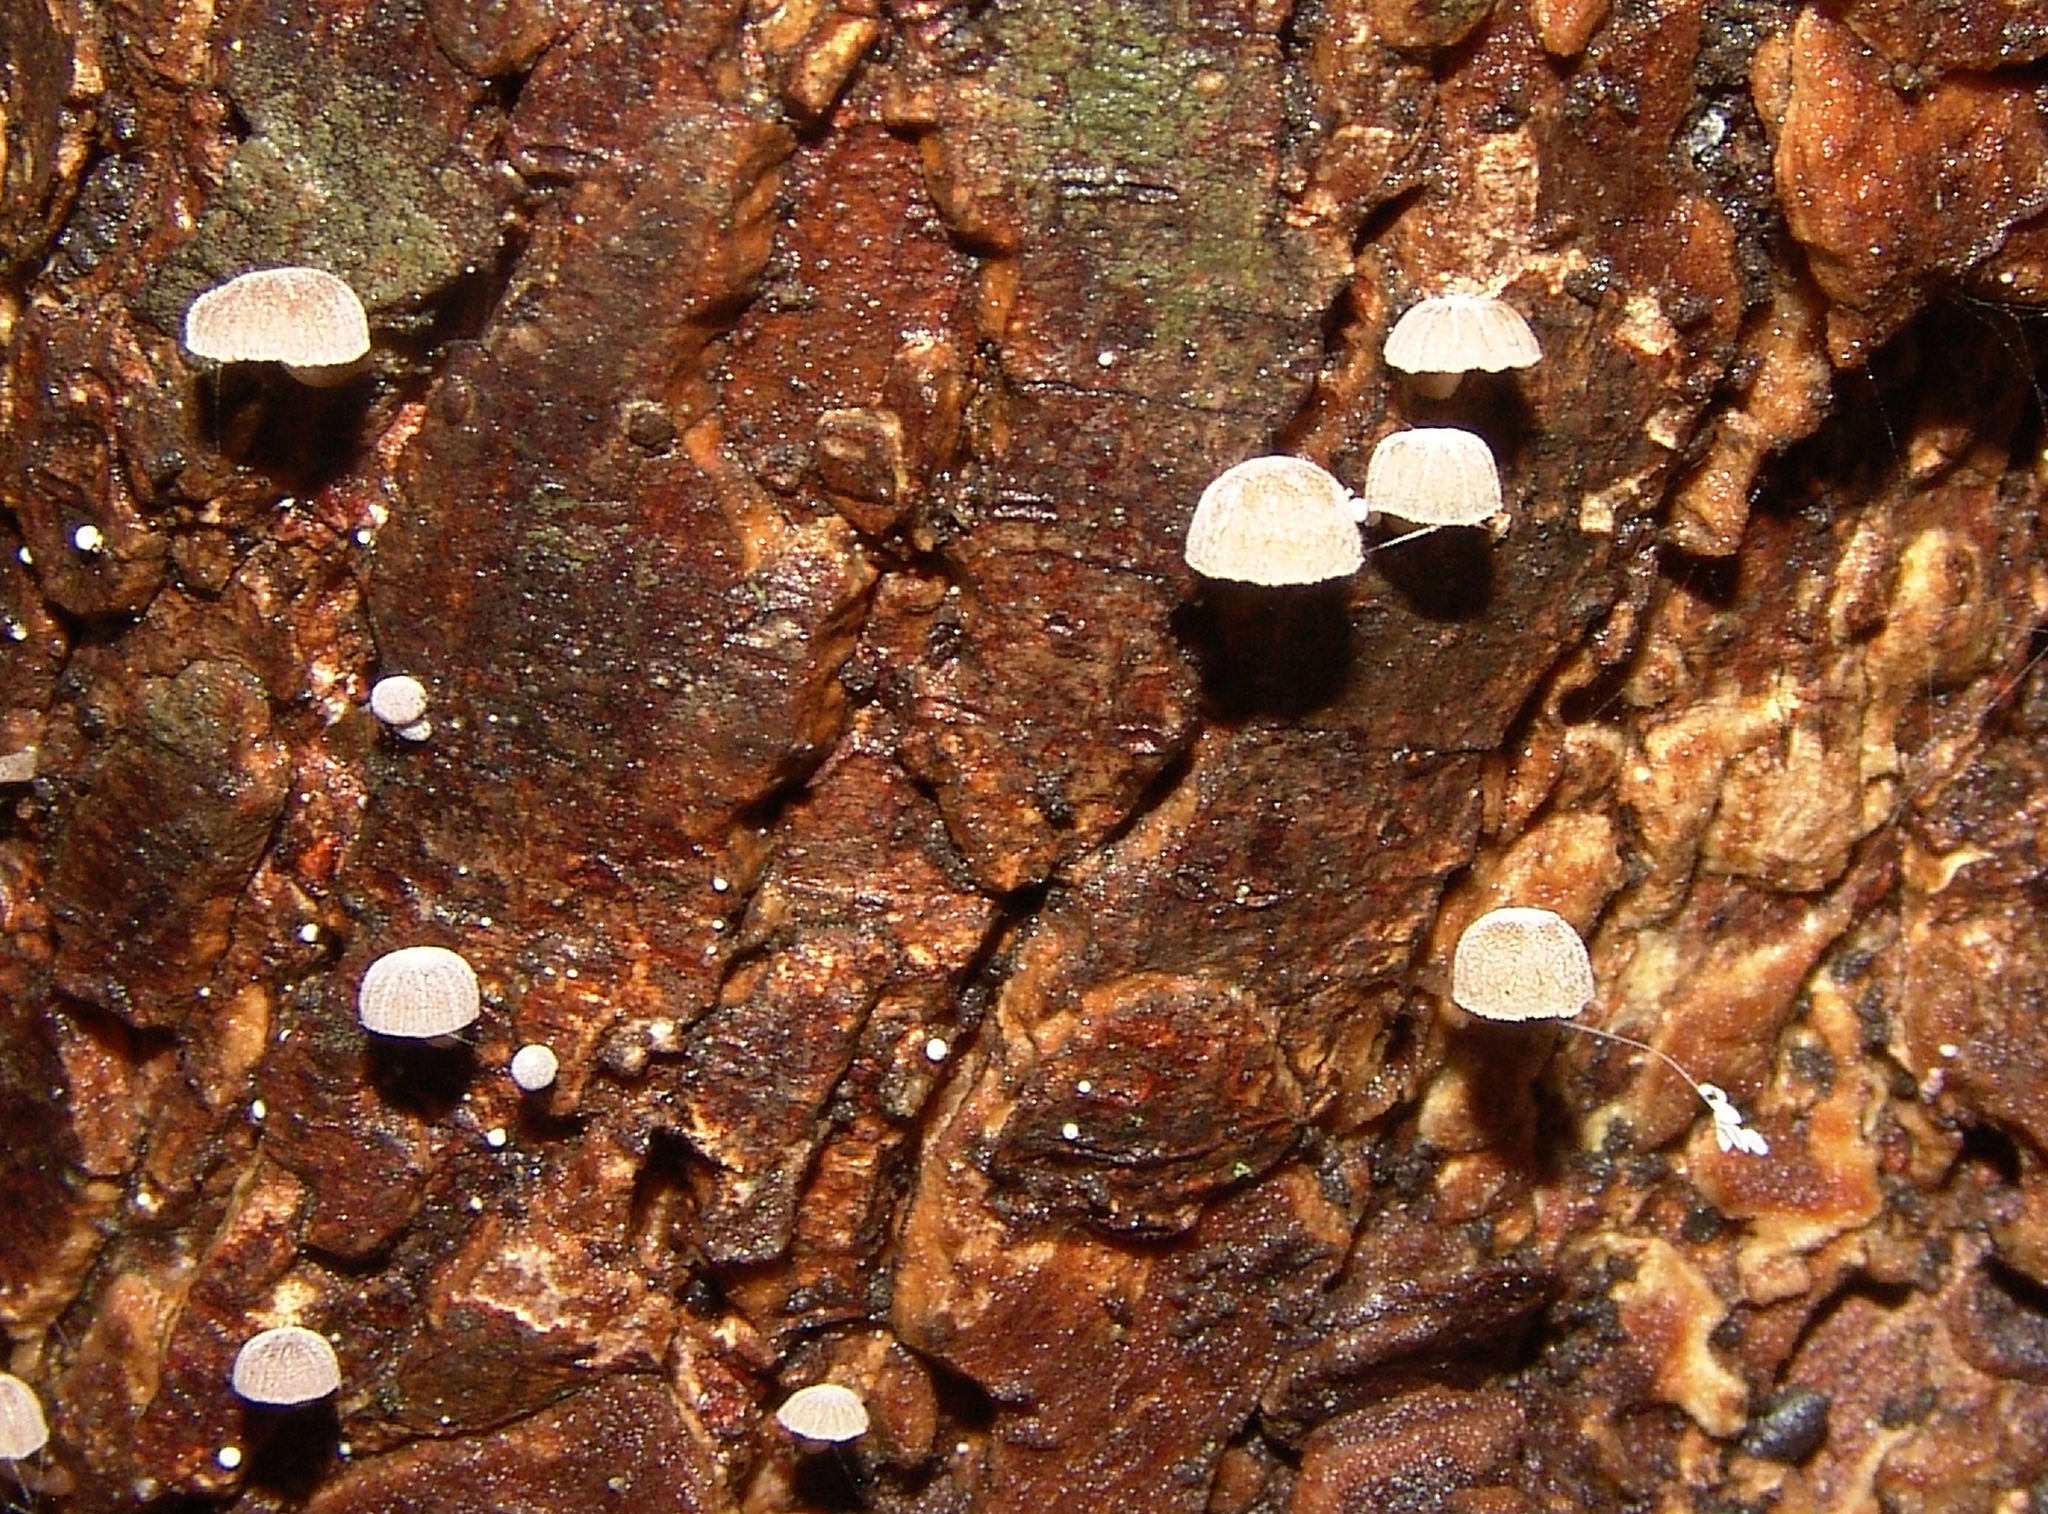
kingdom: Fungi
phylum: Basidiomycota
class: Agaricomycetes
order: Agaricales
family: Mycenaceae
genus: Mycena
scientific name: Mycena corticola
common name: Bark mycena
